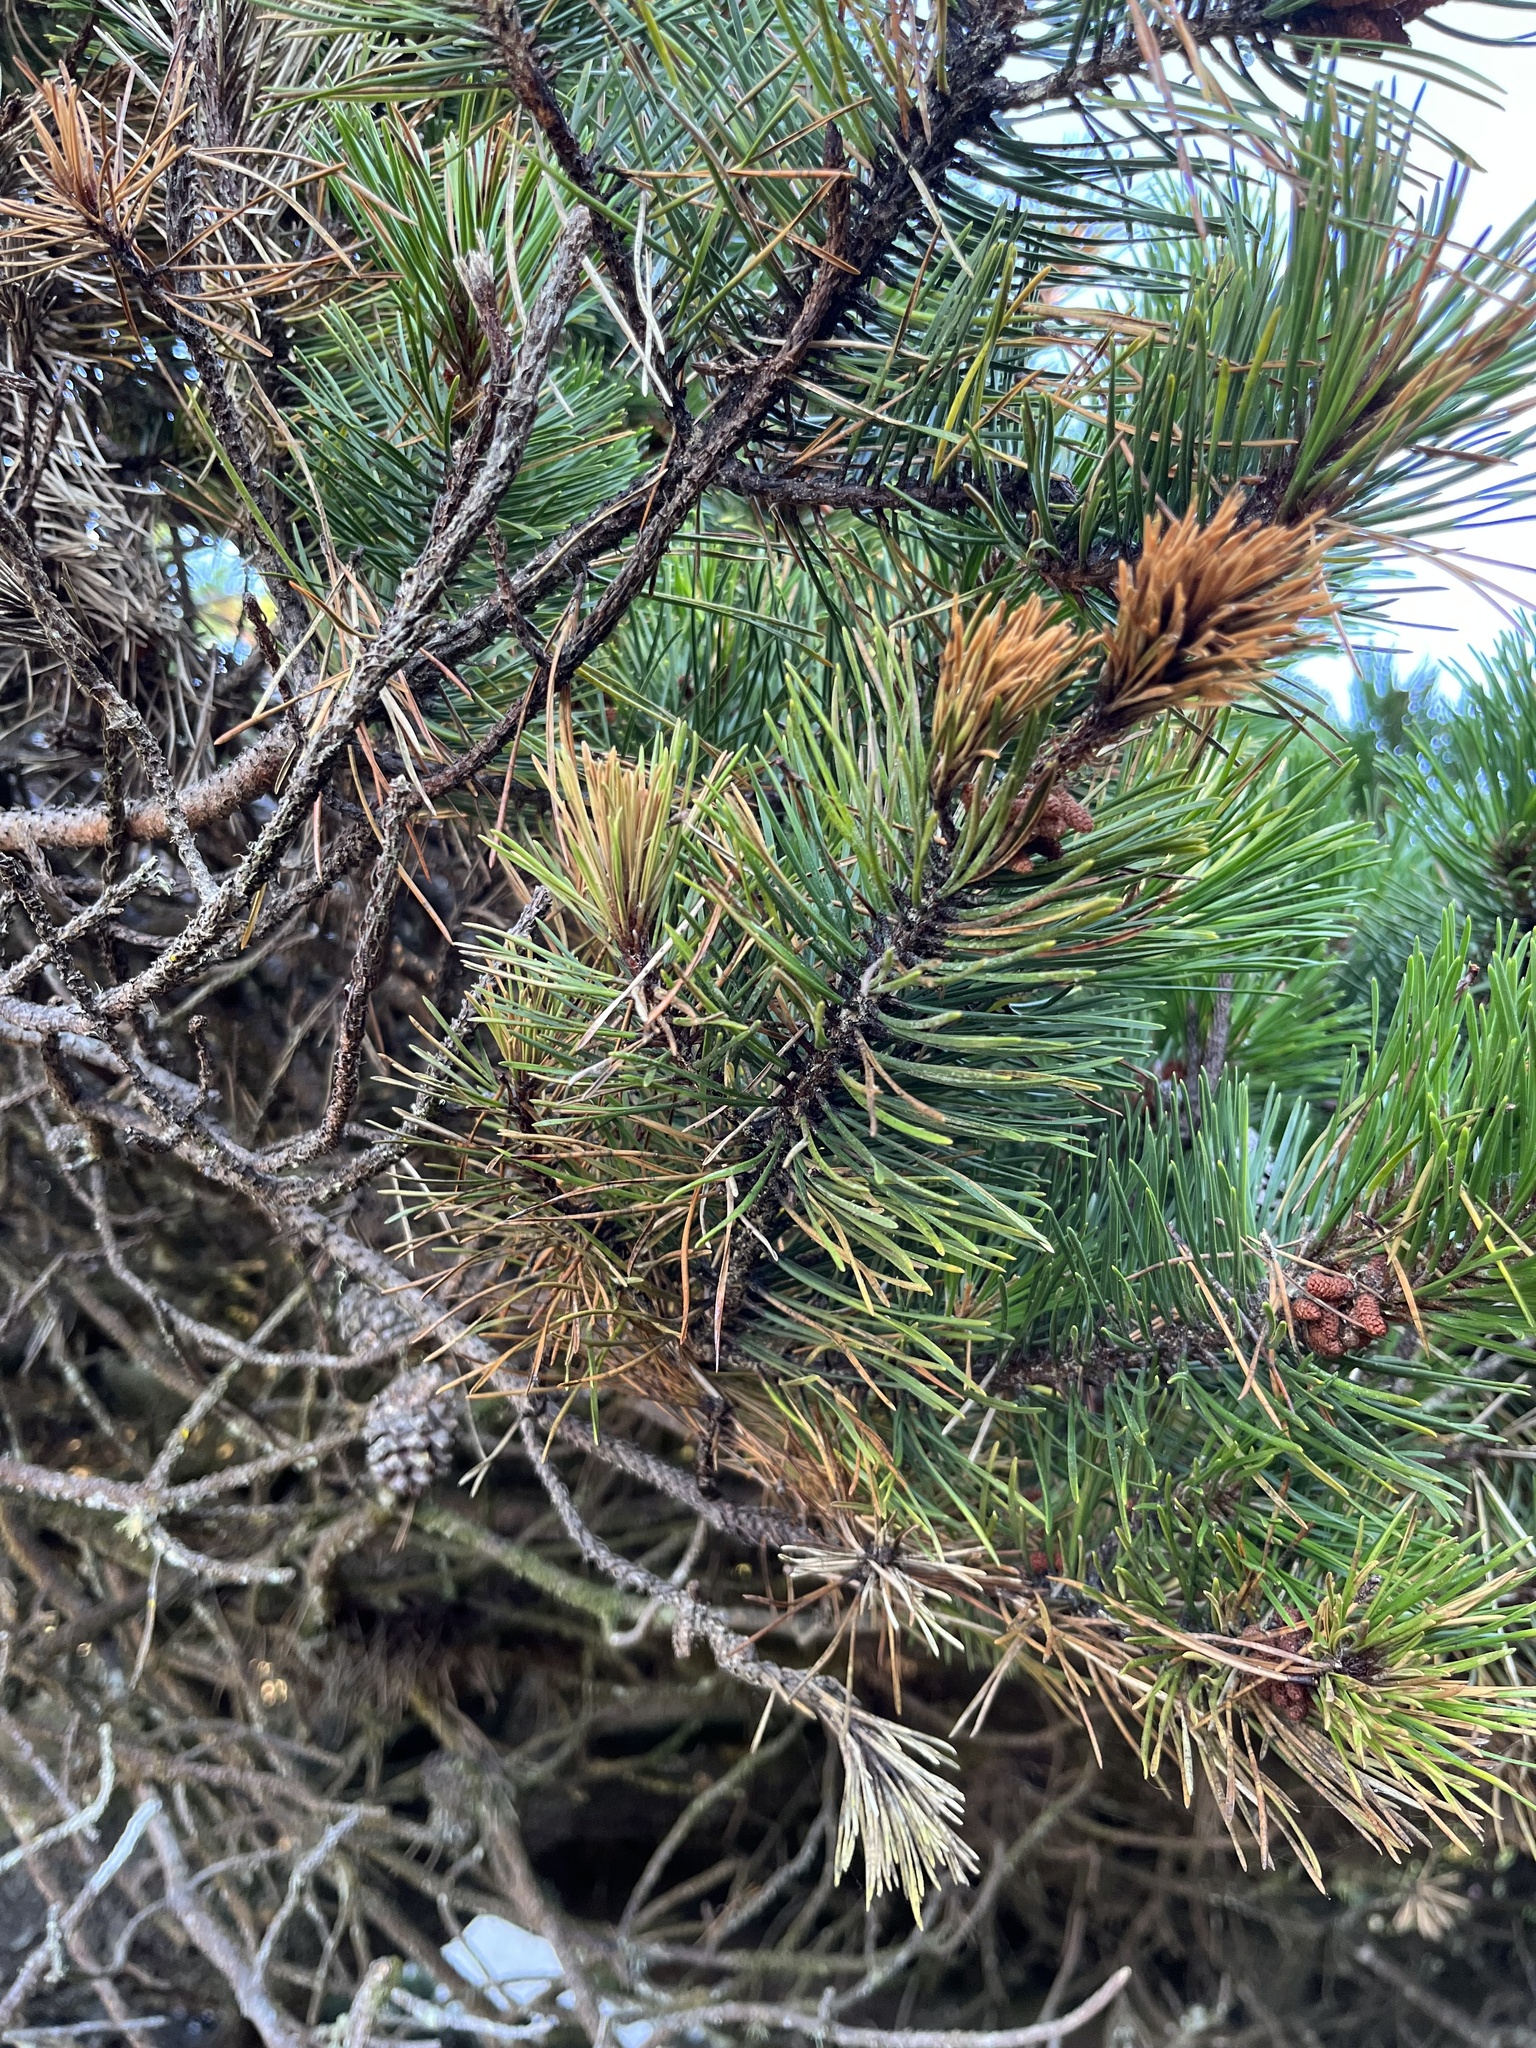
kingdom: Plantae
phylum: Tracheophyta
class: Pinopsida
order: Pinales
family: Pinaceae
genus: Pinus
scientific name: Pinus contorta
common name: Lodgepole pine
